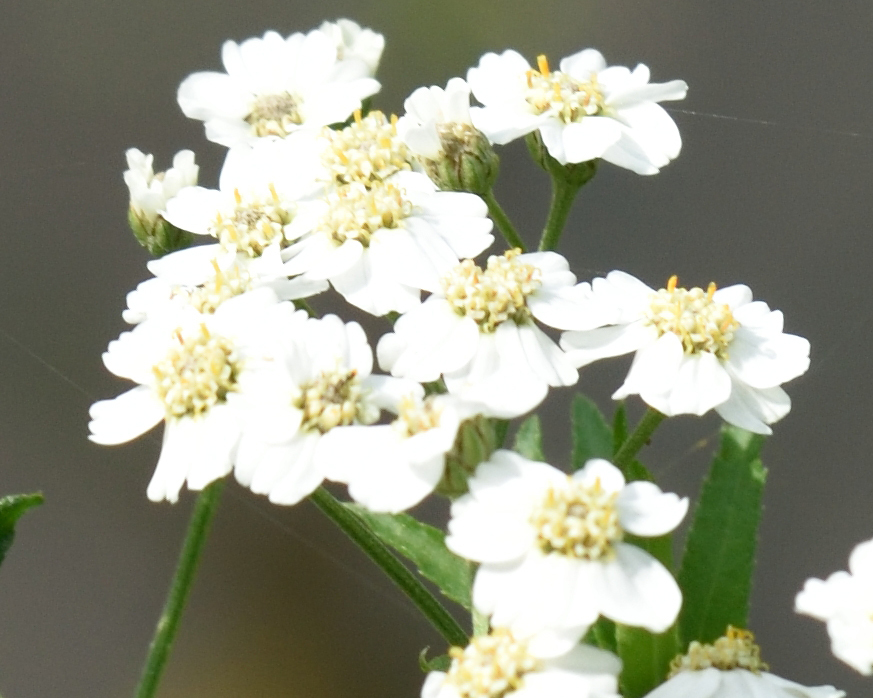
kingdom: Plantae
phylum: Tracheophyta
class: Magnoliopsida
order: Asterales
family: Asteraceae
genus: Achillea
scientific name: Achillea salicifolia
